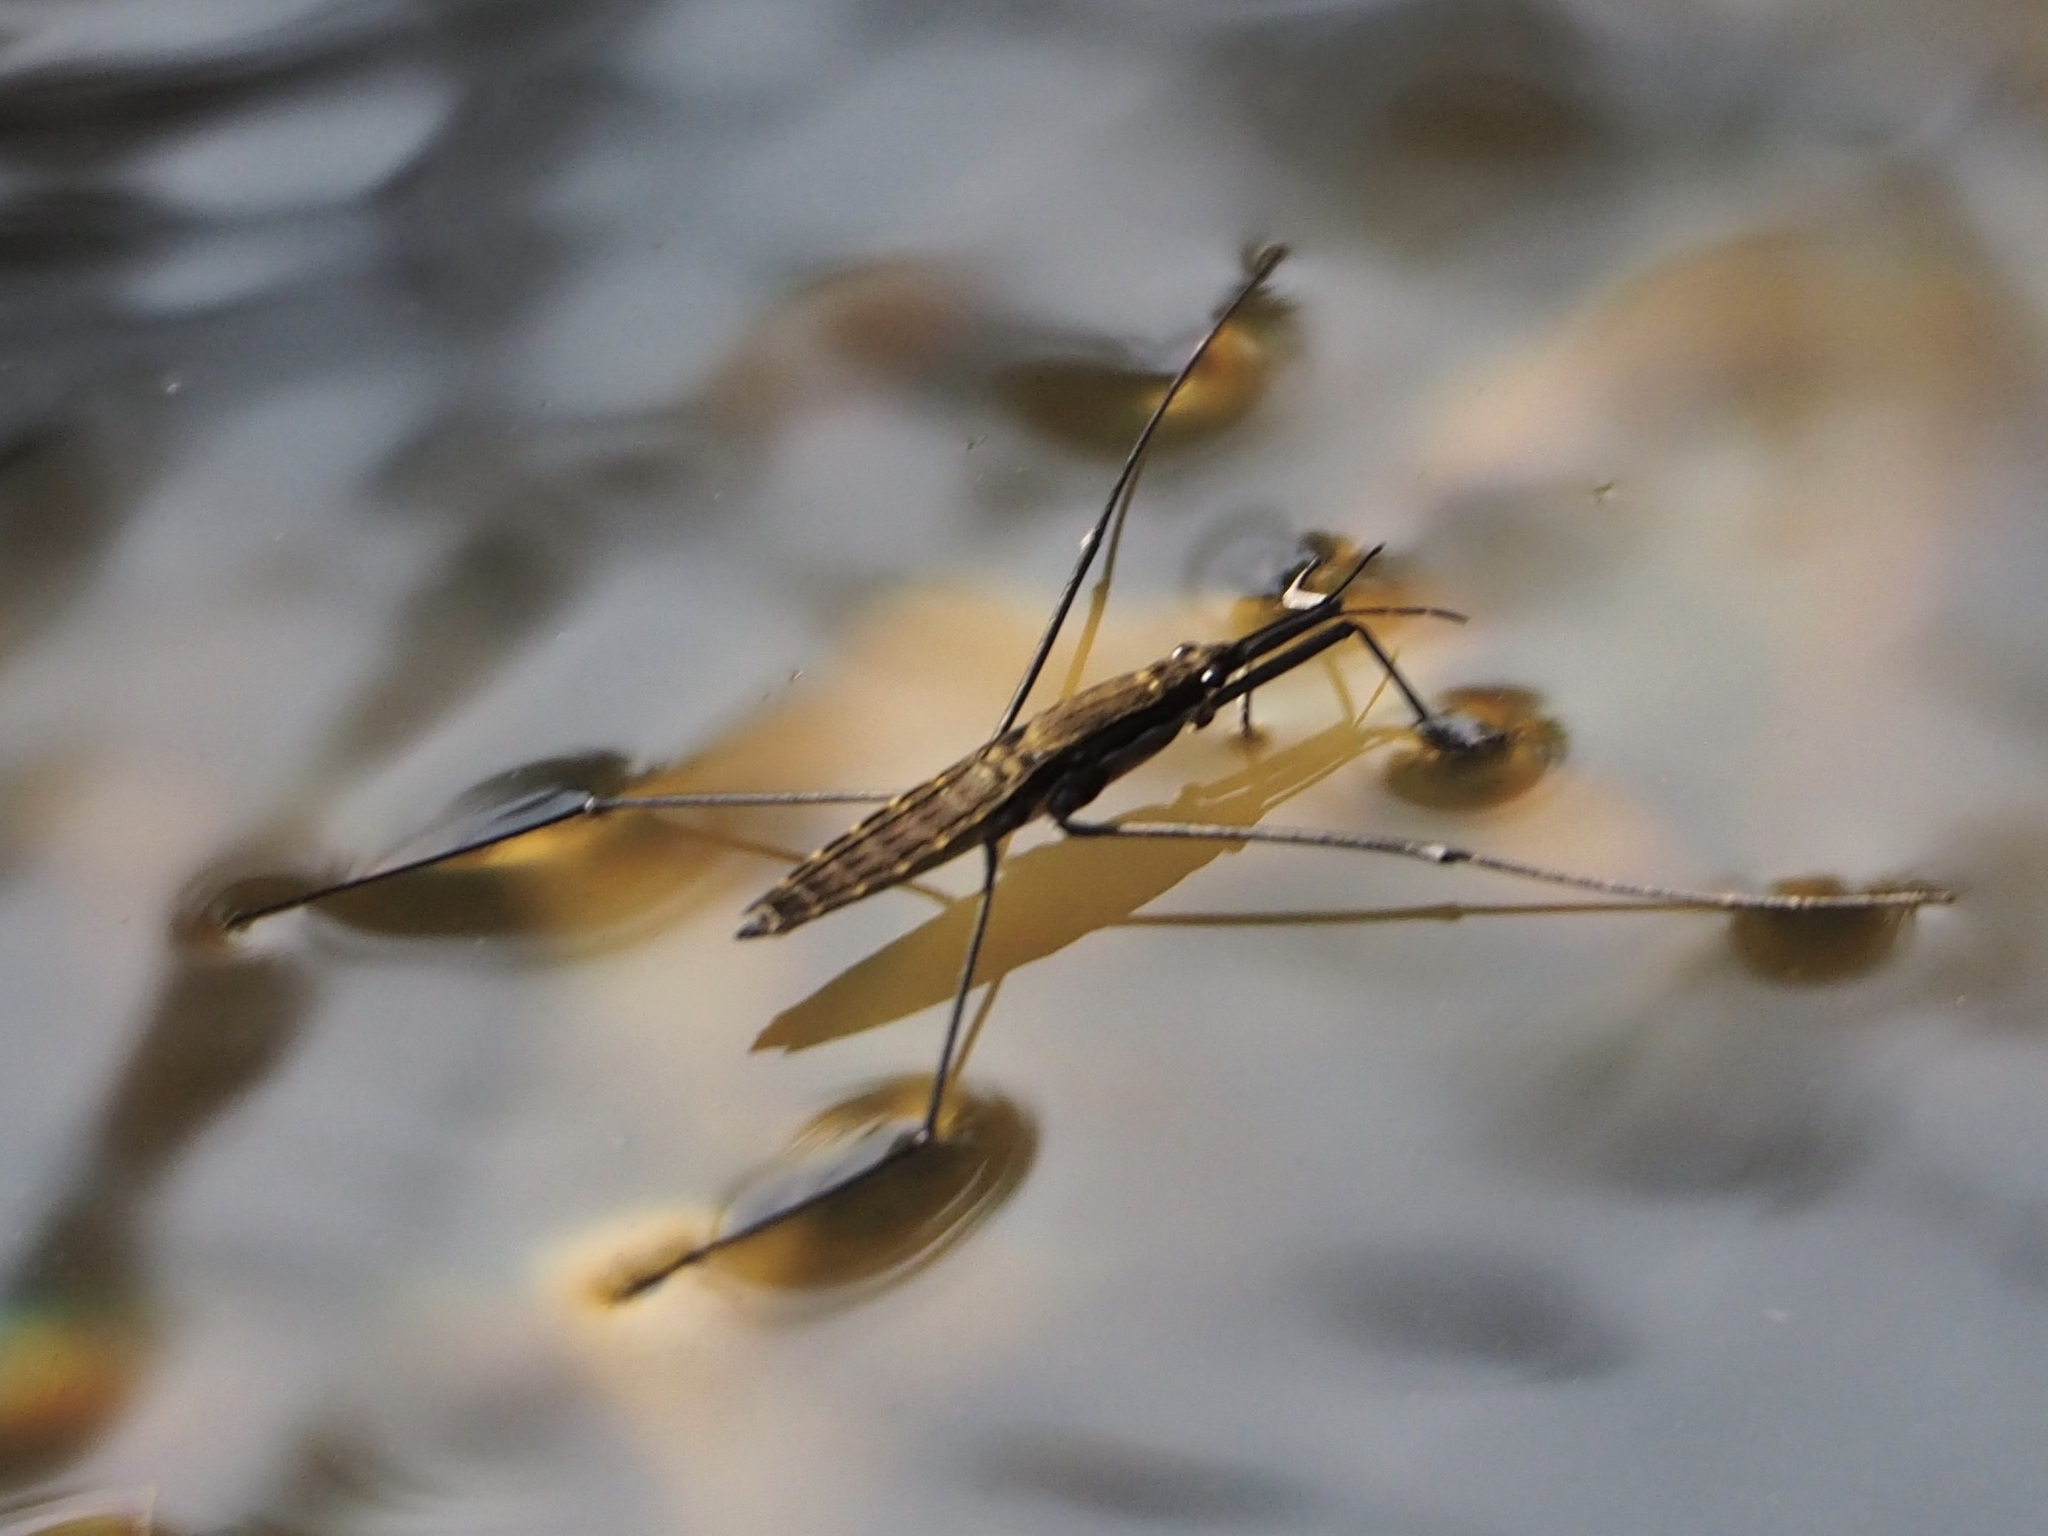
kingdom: Animalia
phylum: Arthropoda
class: Insecta
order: Hemiptera
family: Gerridae
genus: Aquarius
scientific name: Aquarius najas
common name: River skater
